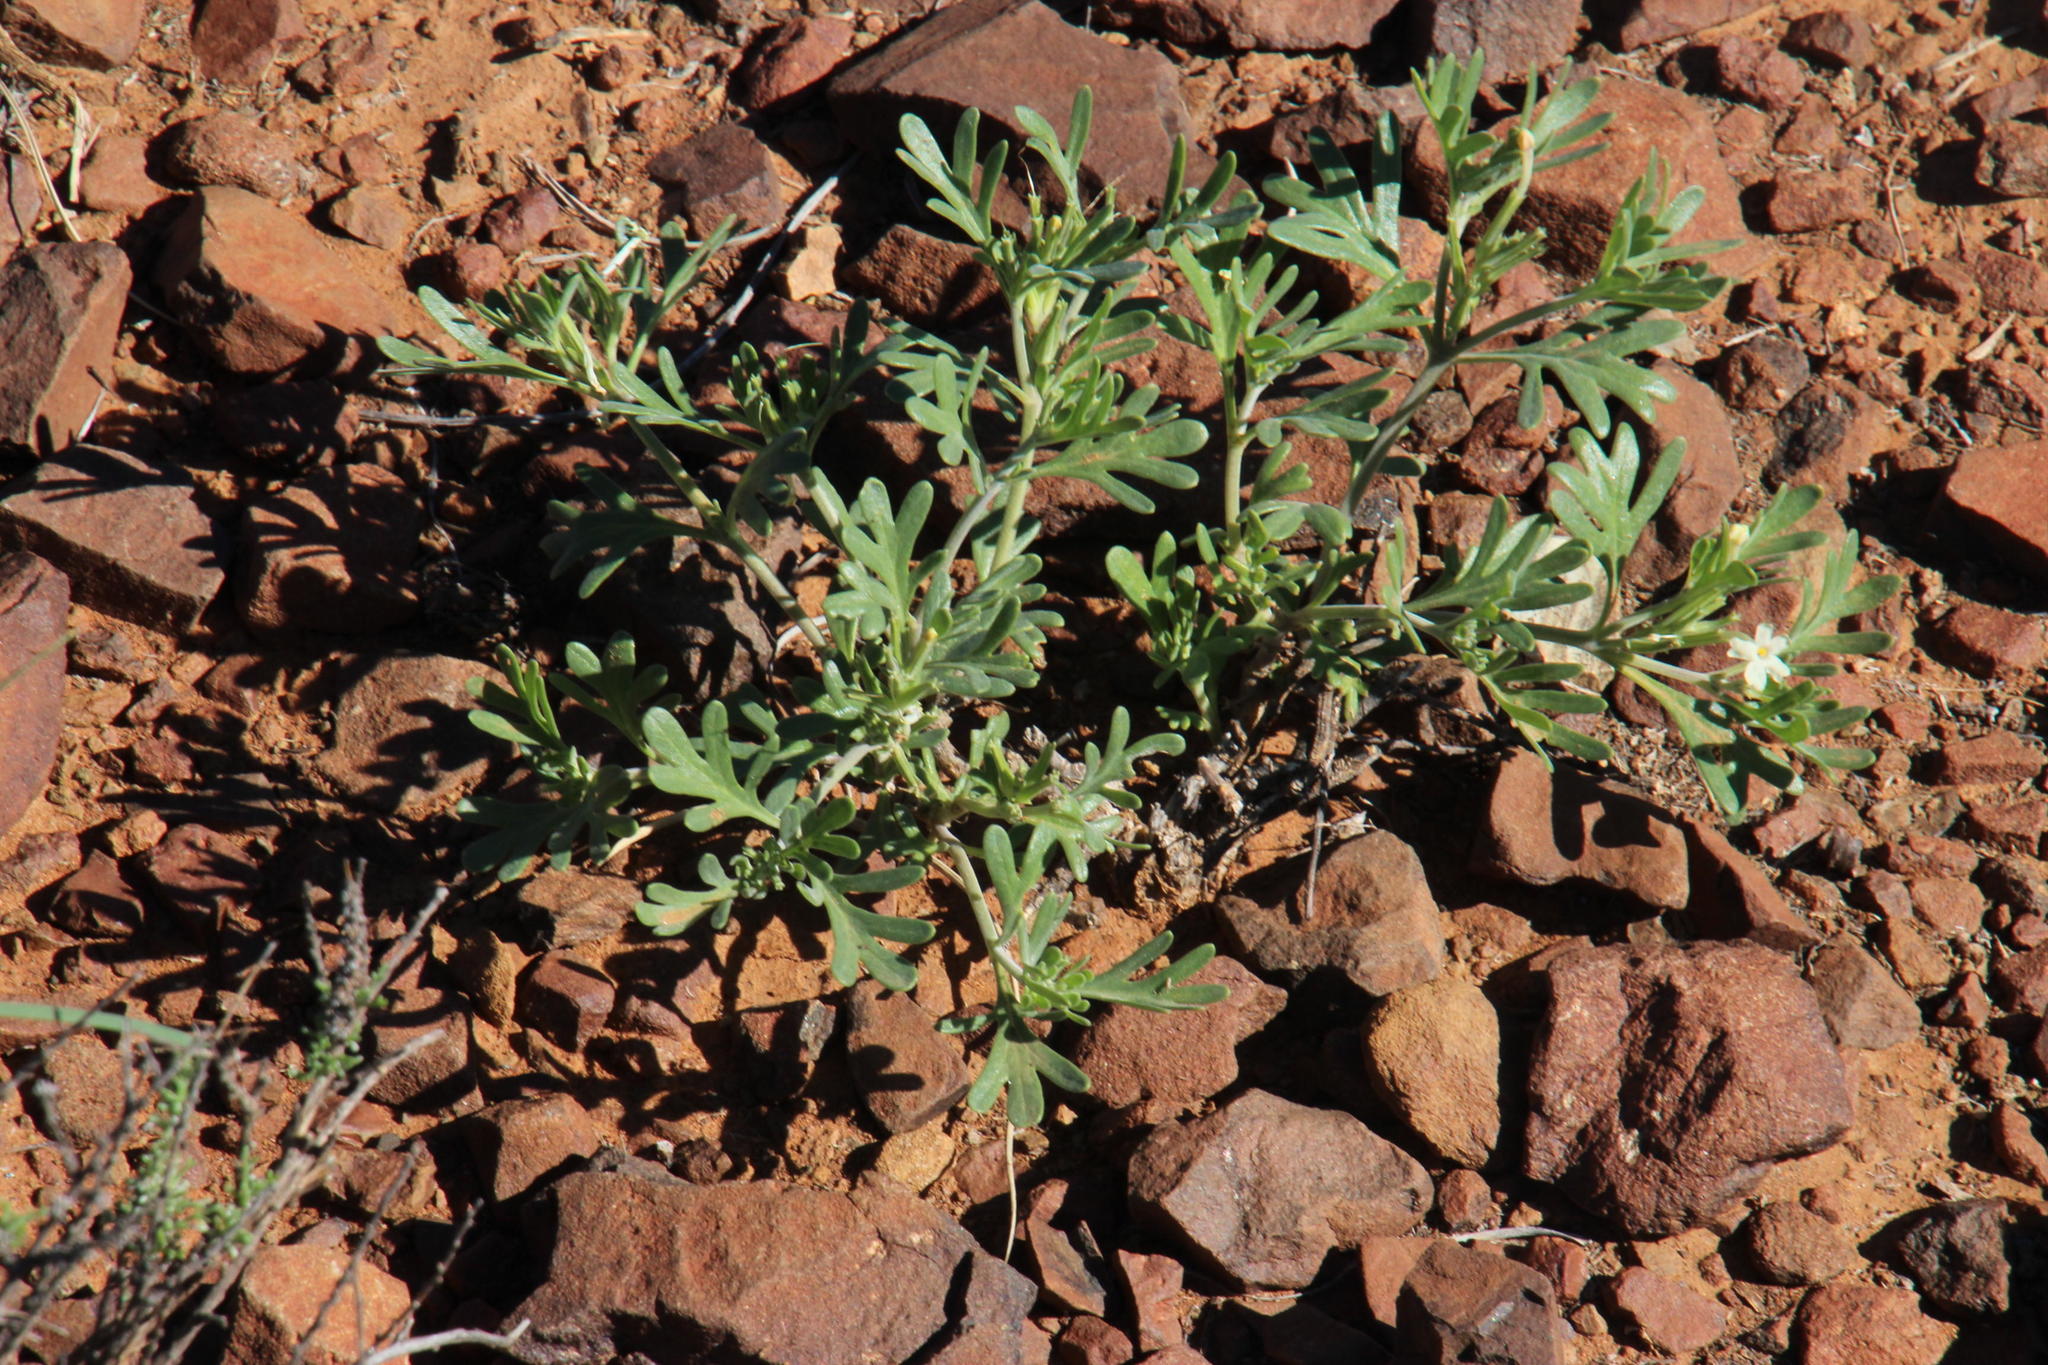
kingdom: Plantae
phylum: Tracheophyta
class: Magnoliopsida
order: Lamiales
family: Verbenaceae
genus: Chascanum
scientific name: Chascanum pinnatifidum
